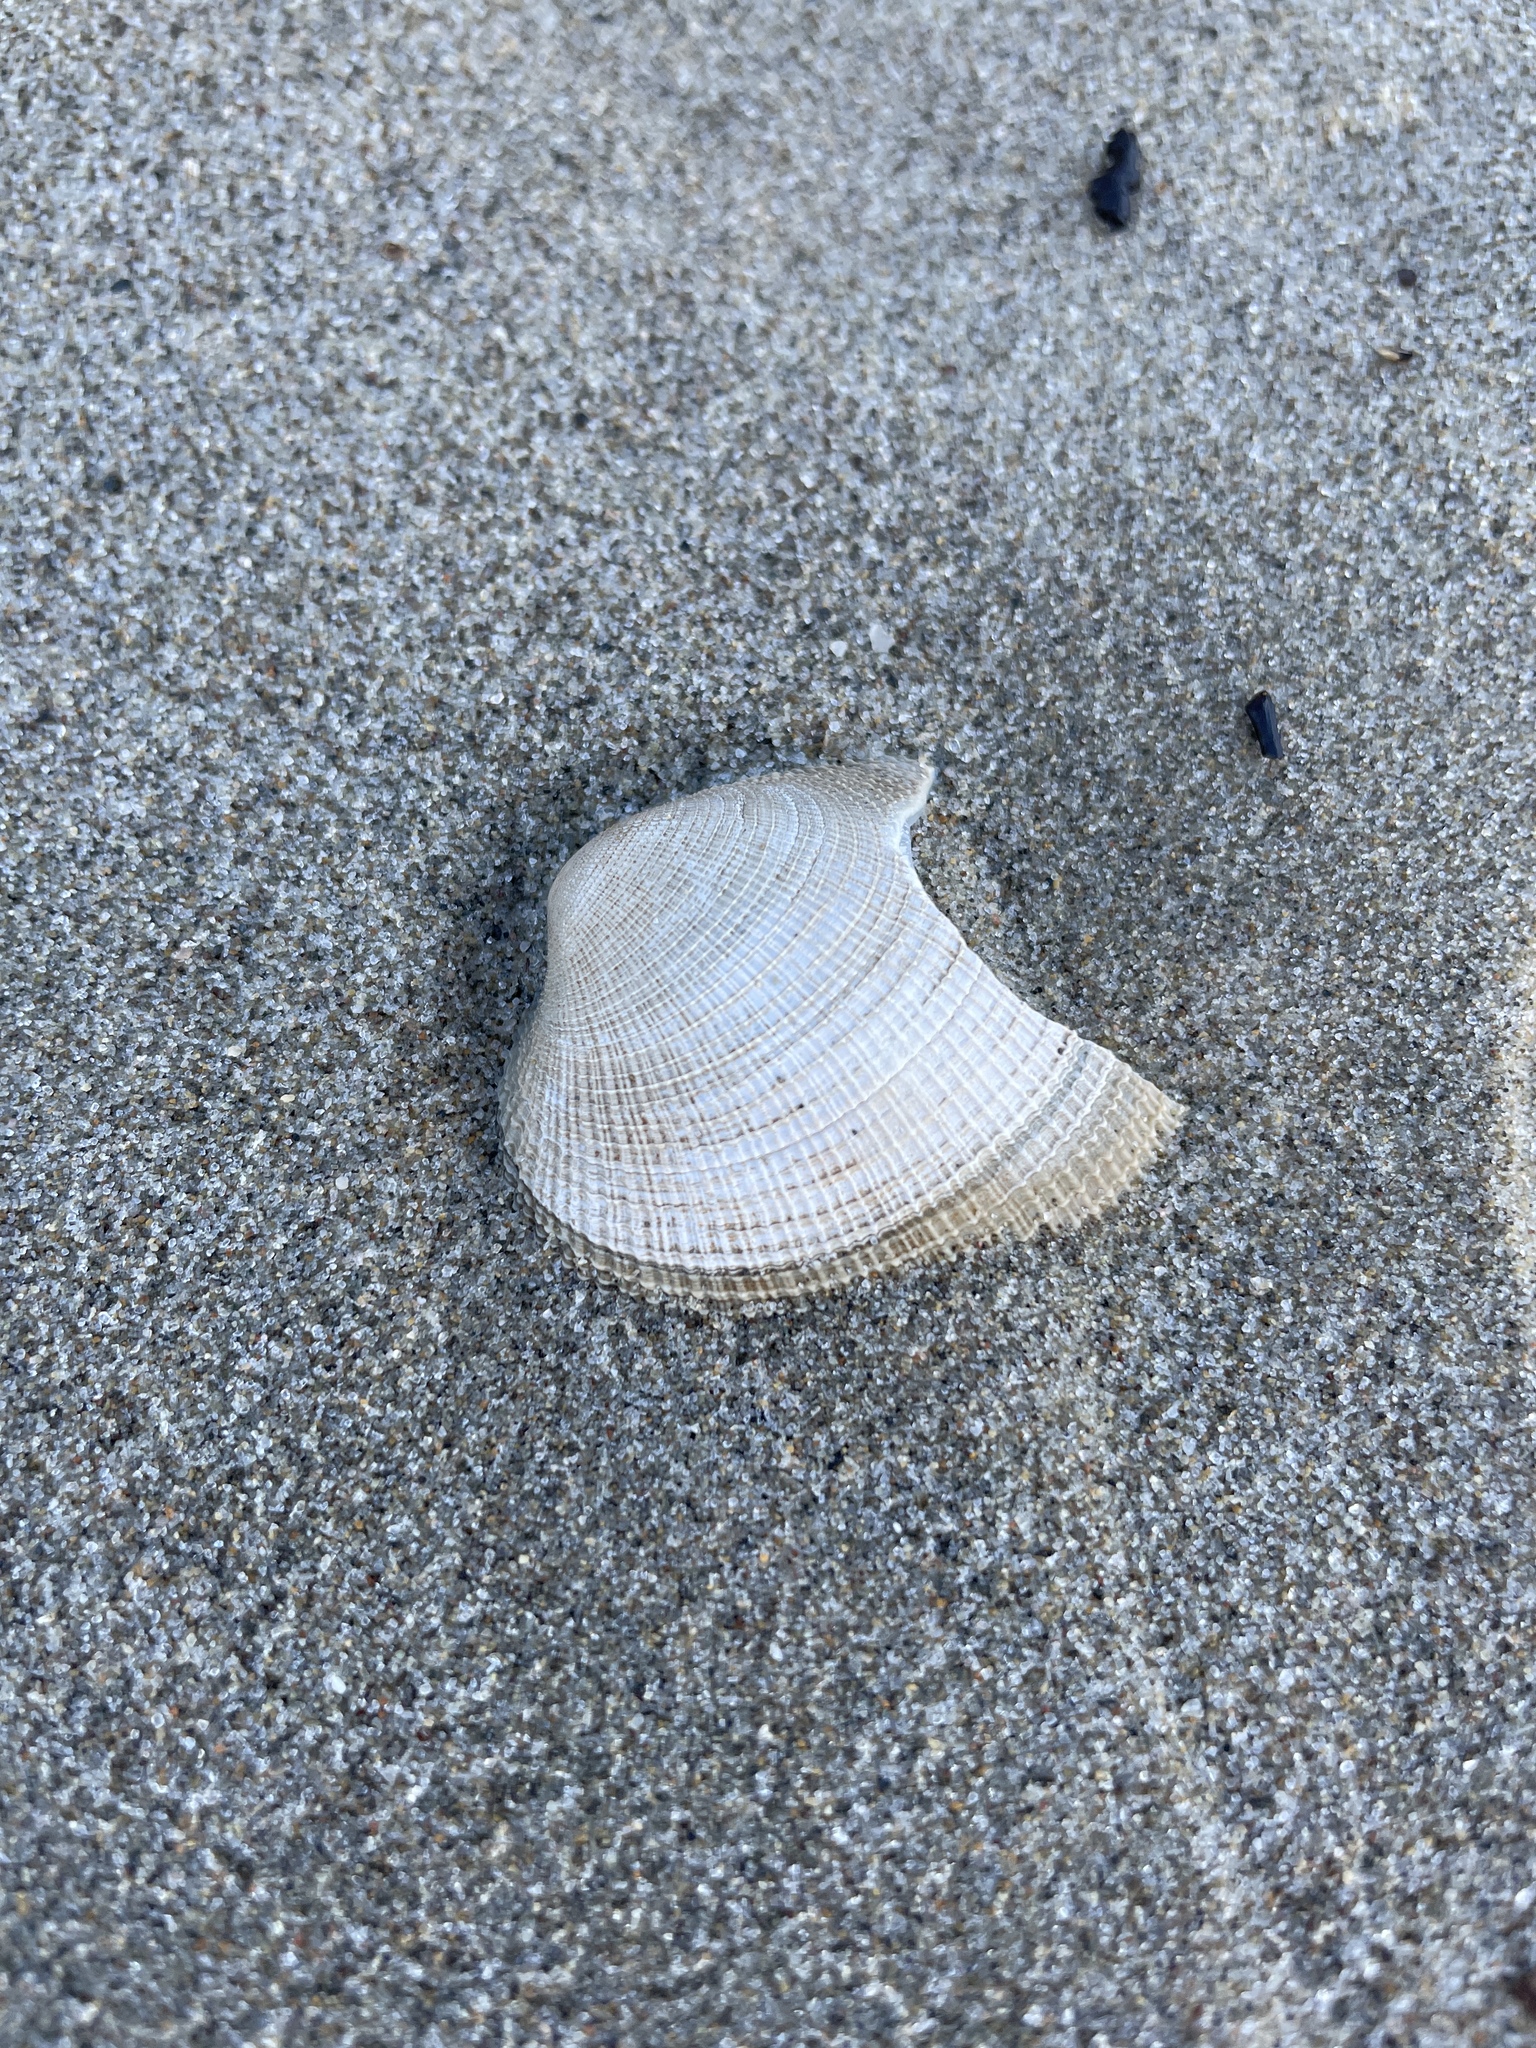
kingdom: Animalia
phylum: Mollusca
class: Bivalvia
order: Venerida
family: Veneridae
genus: Leukoma
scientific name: Leukoma laciniata
